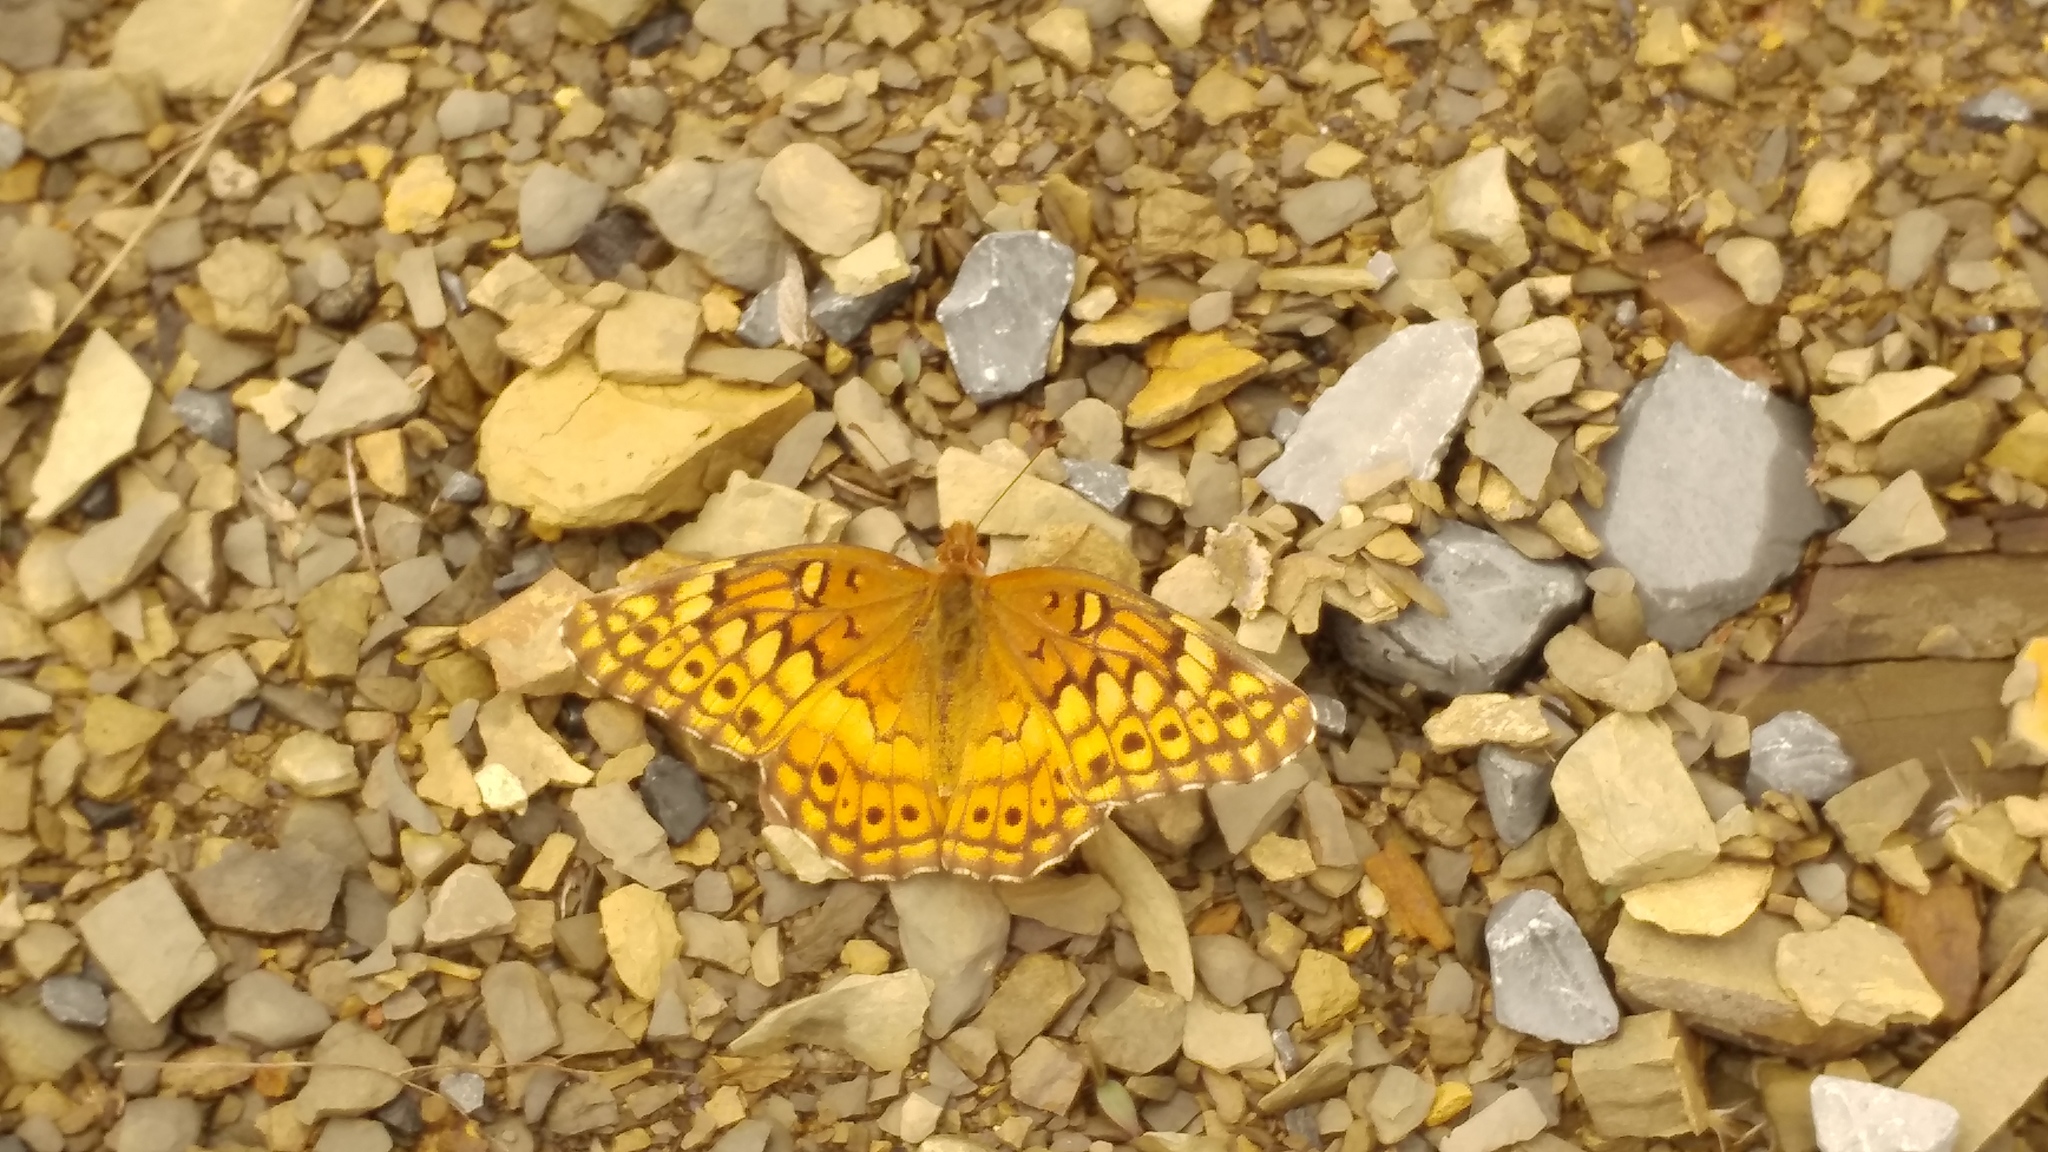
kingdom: Animalia
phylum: Arthropoda
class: Insecta
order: Lepidoptera
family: Nymphalidae
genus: Euptoieta
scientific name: Euptoieta claudia
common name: Variegated fritillary
